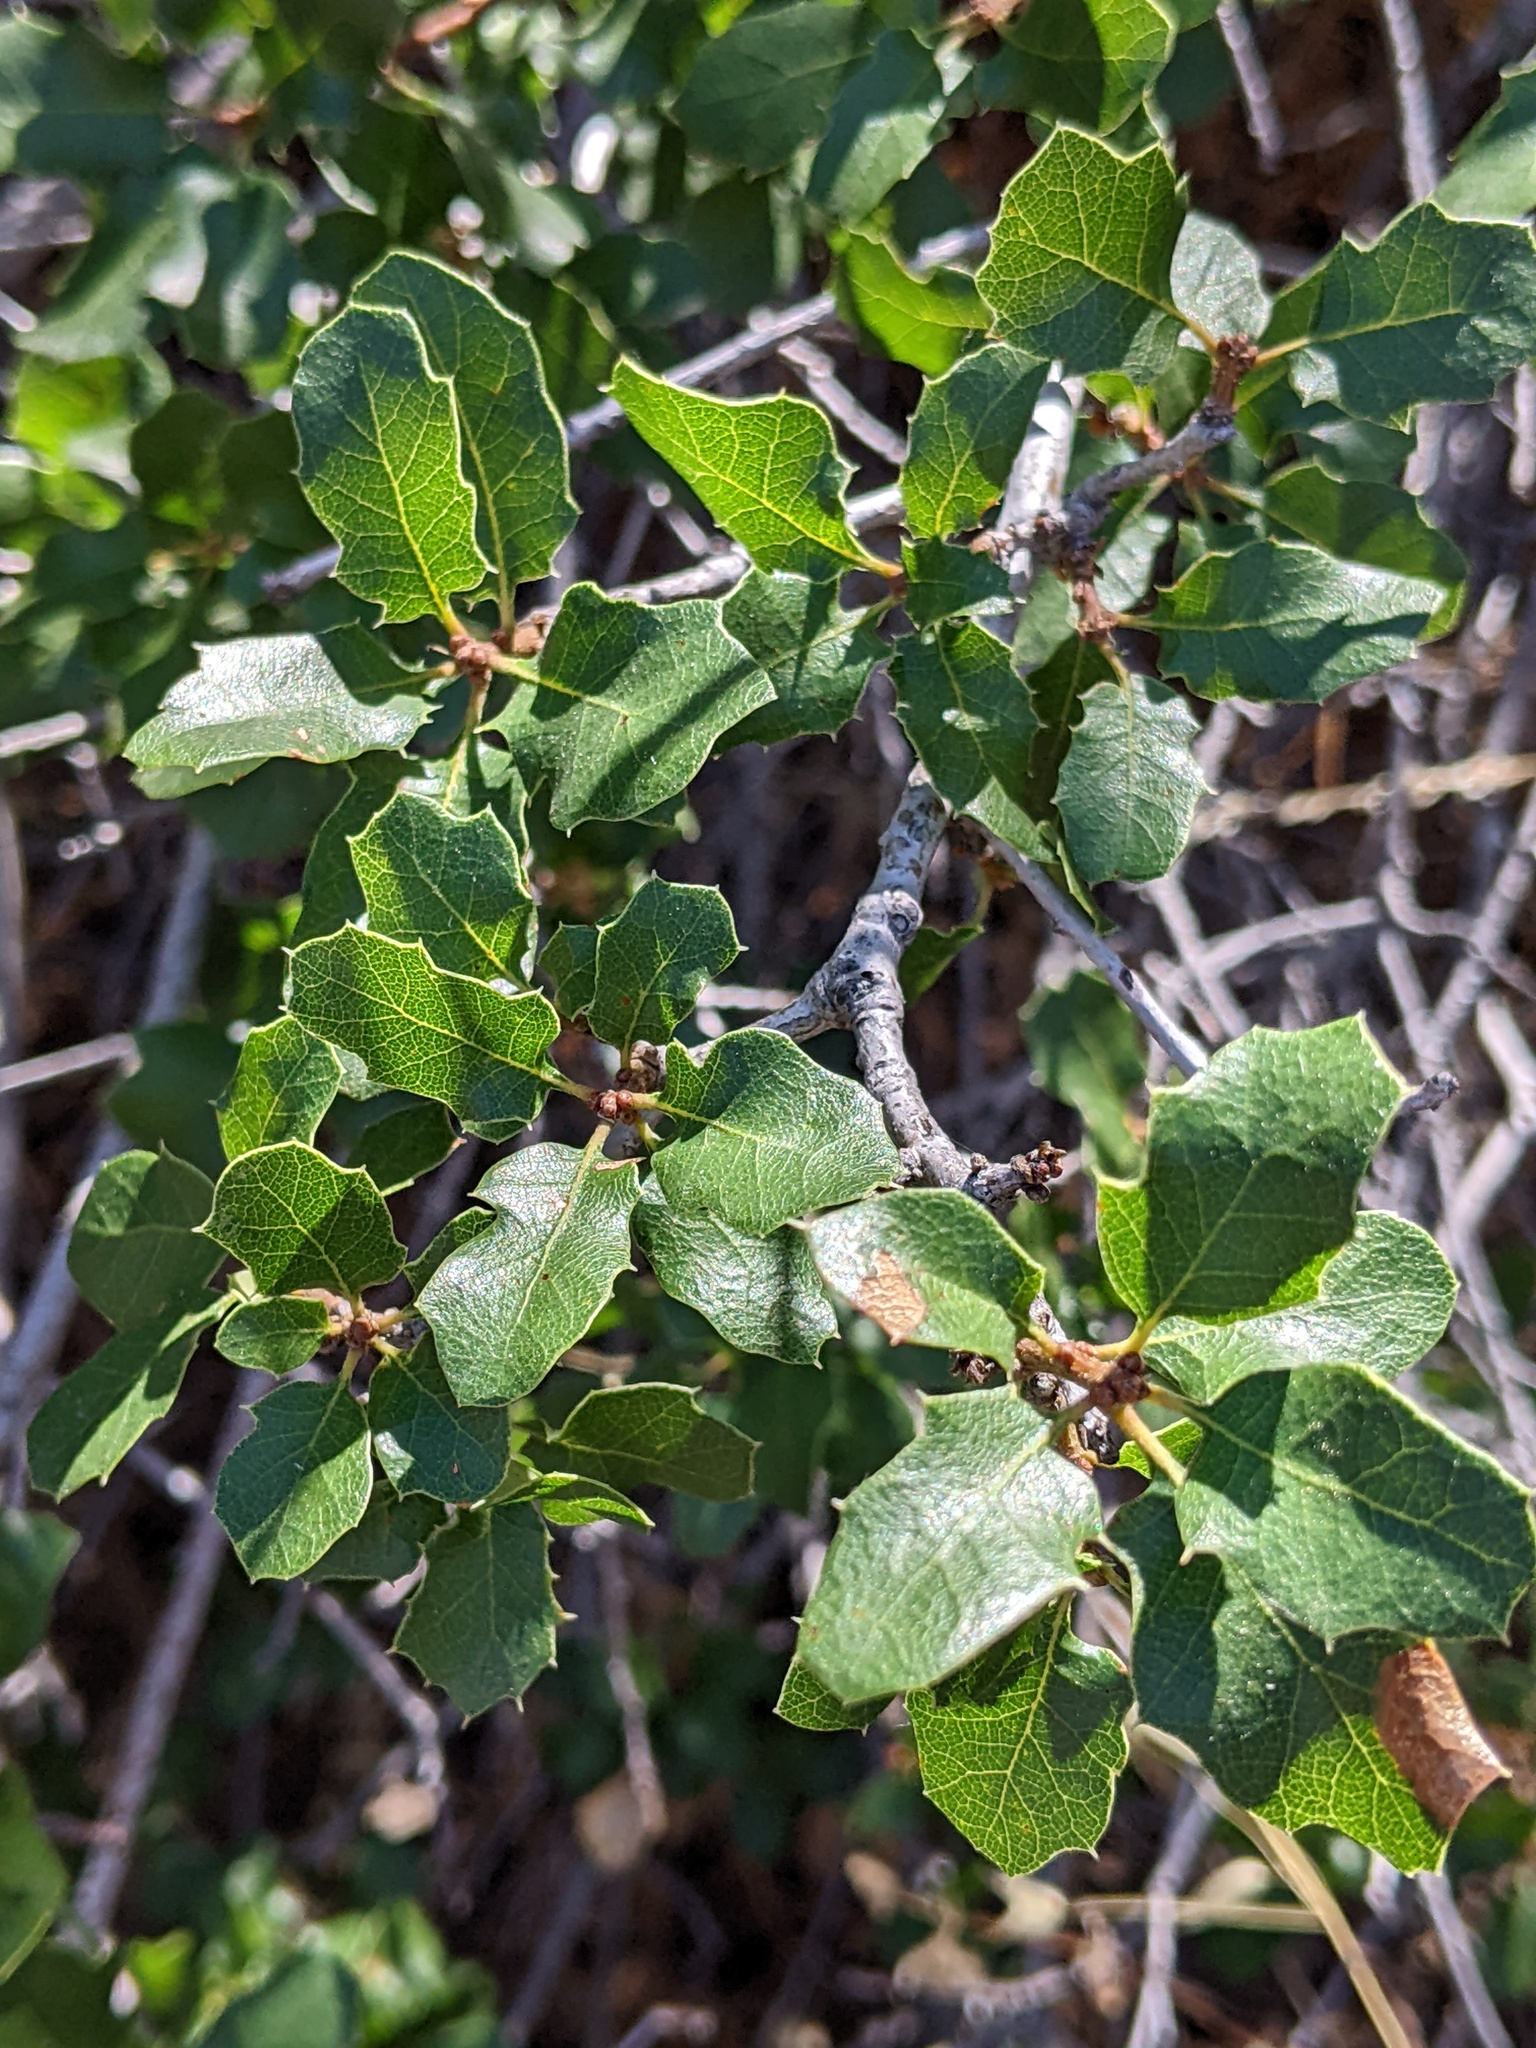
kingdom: Plantae
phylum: Tracheophyta
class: Magnoliopsida
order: Fagales
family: Fagaceae
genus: Quercus
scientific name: Quercus berberidifolia
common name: California scrub oak
